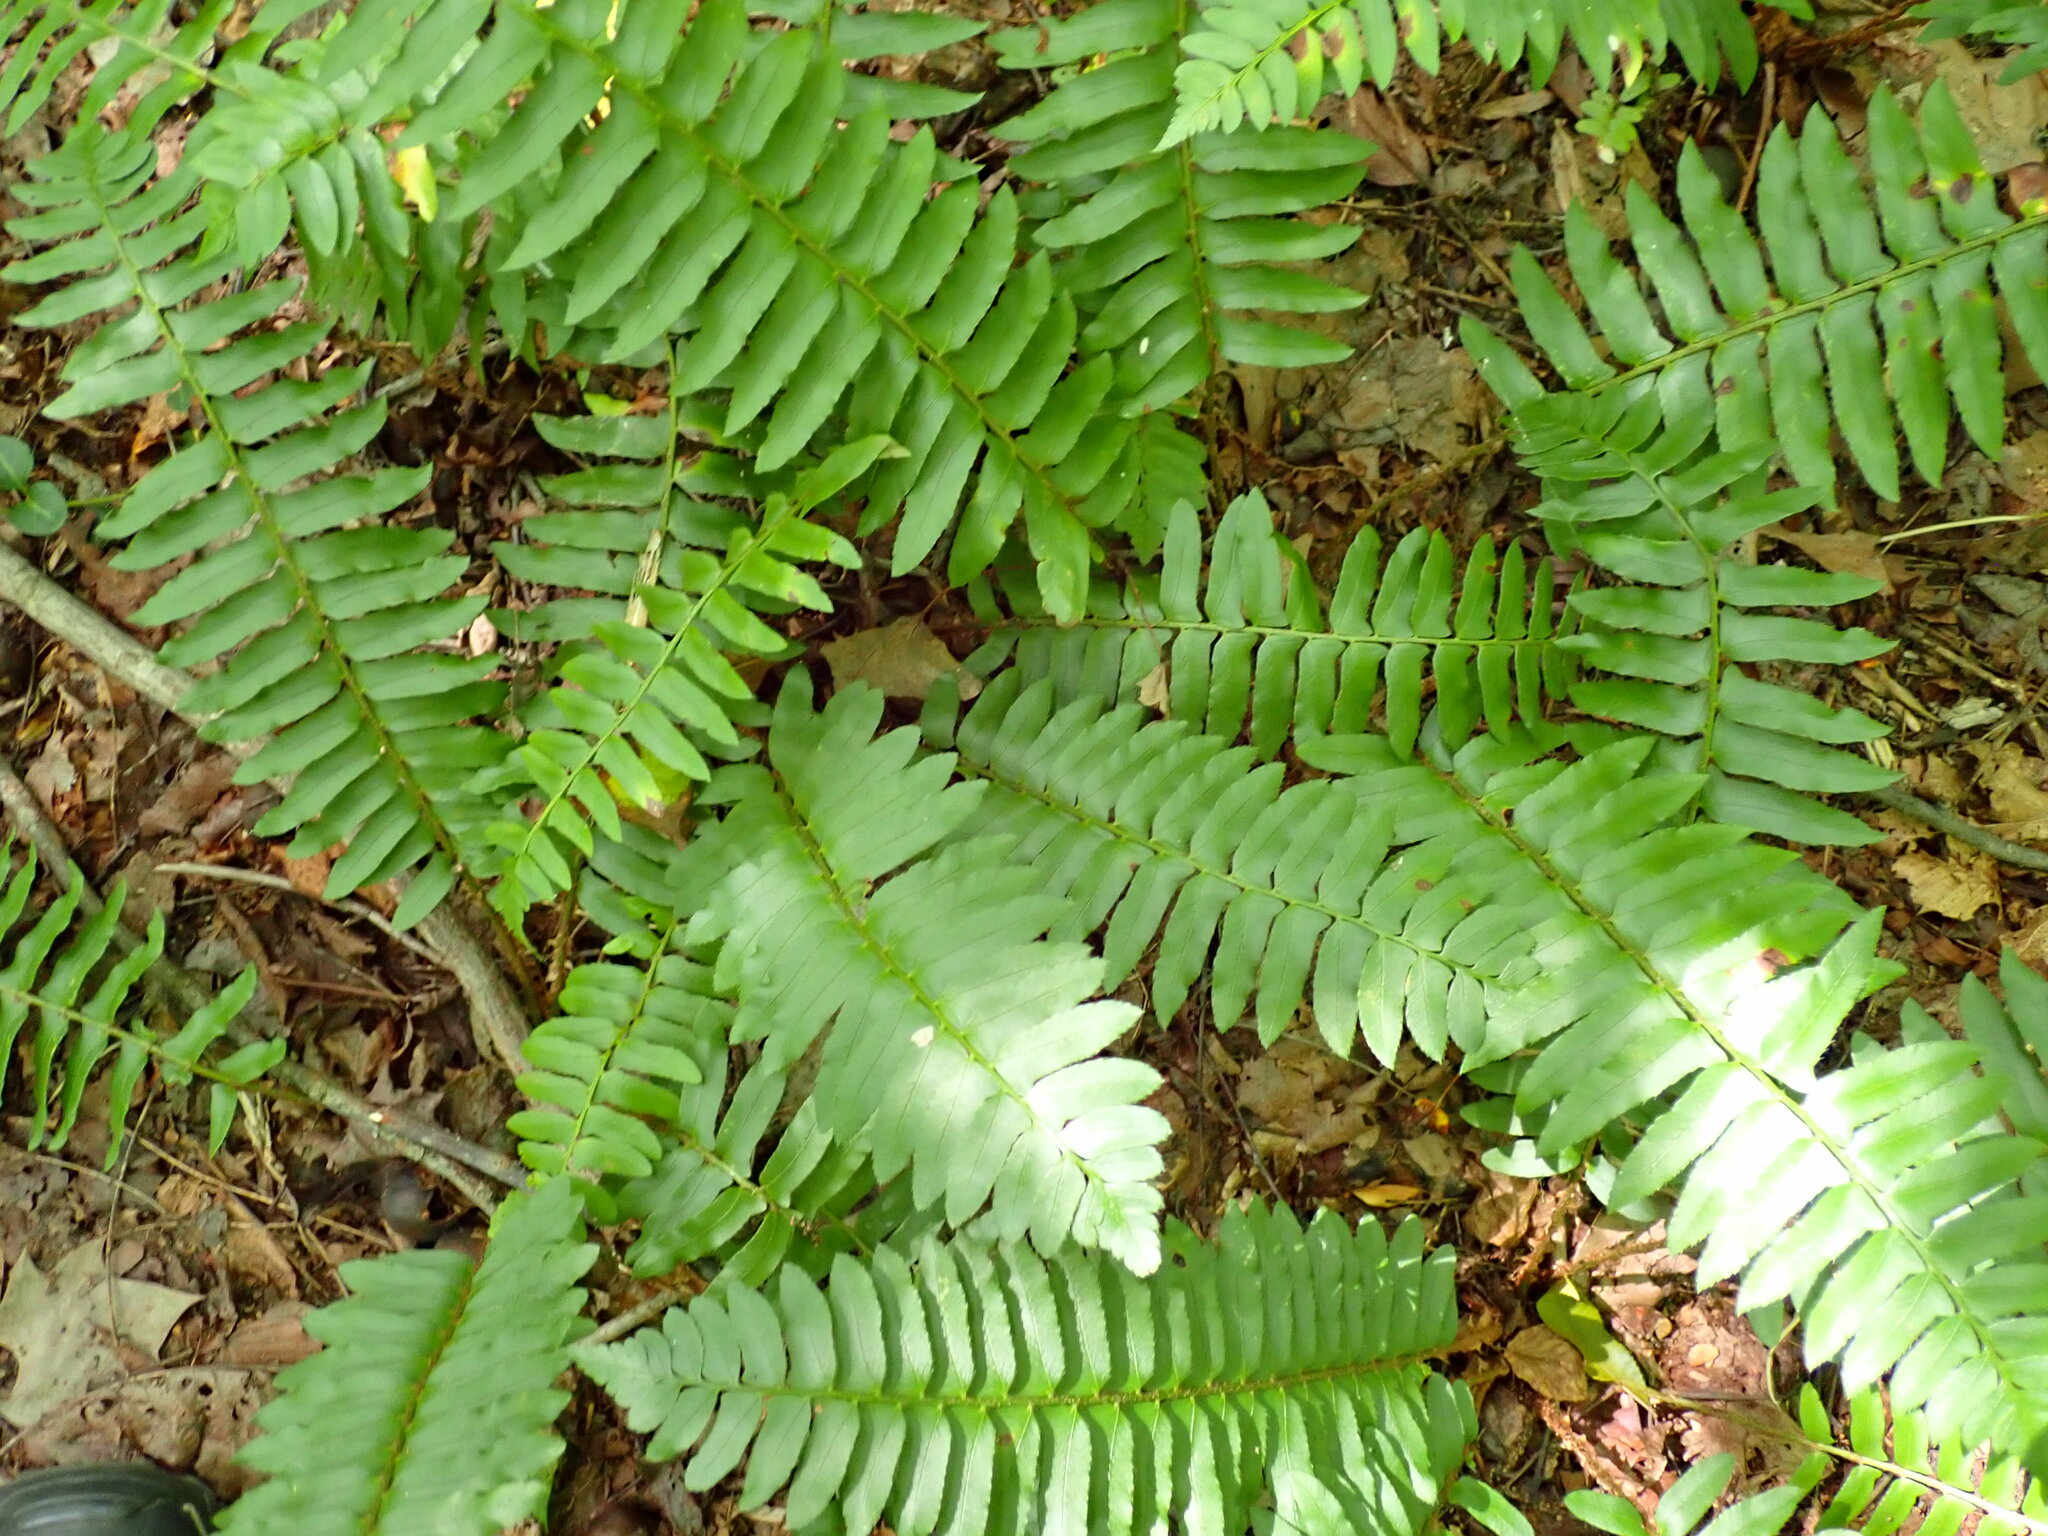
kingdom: Plantae
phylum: Tracheophyta
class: Polypodiopsida
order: Polypodiales
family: Dryopteridaceae
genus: Polystichum
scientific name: Polystichum acrostichoides
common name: Christmas fern
